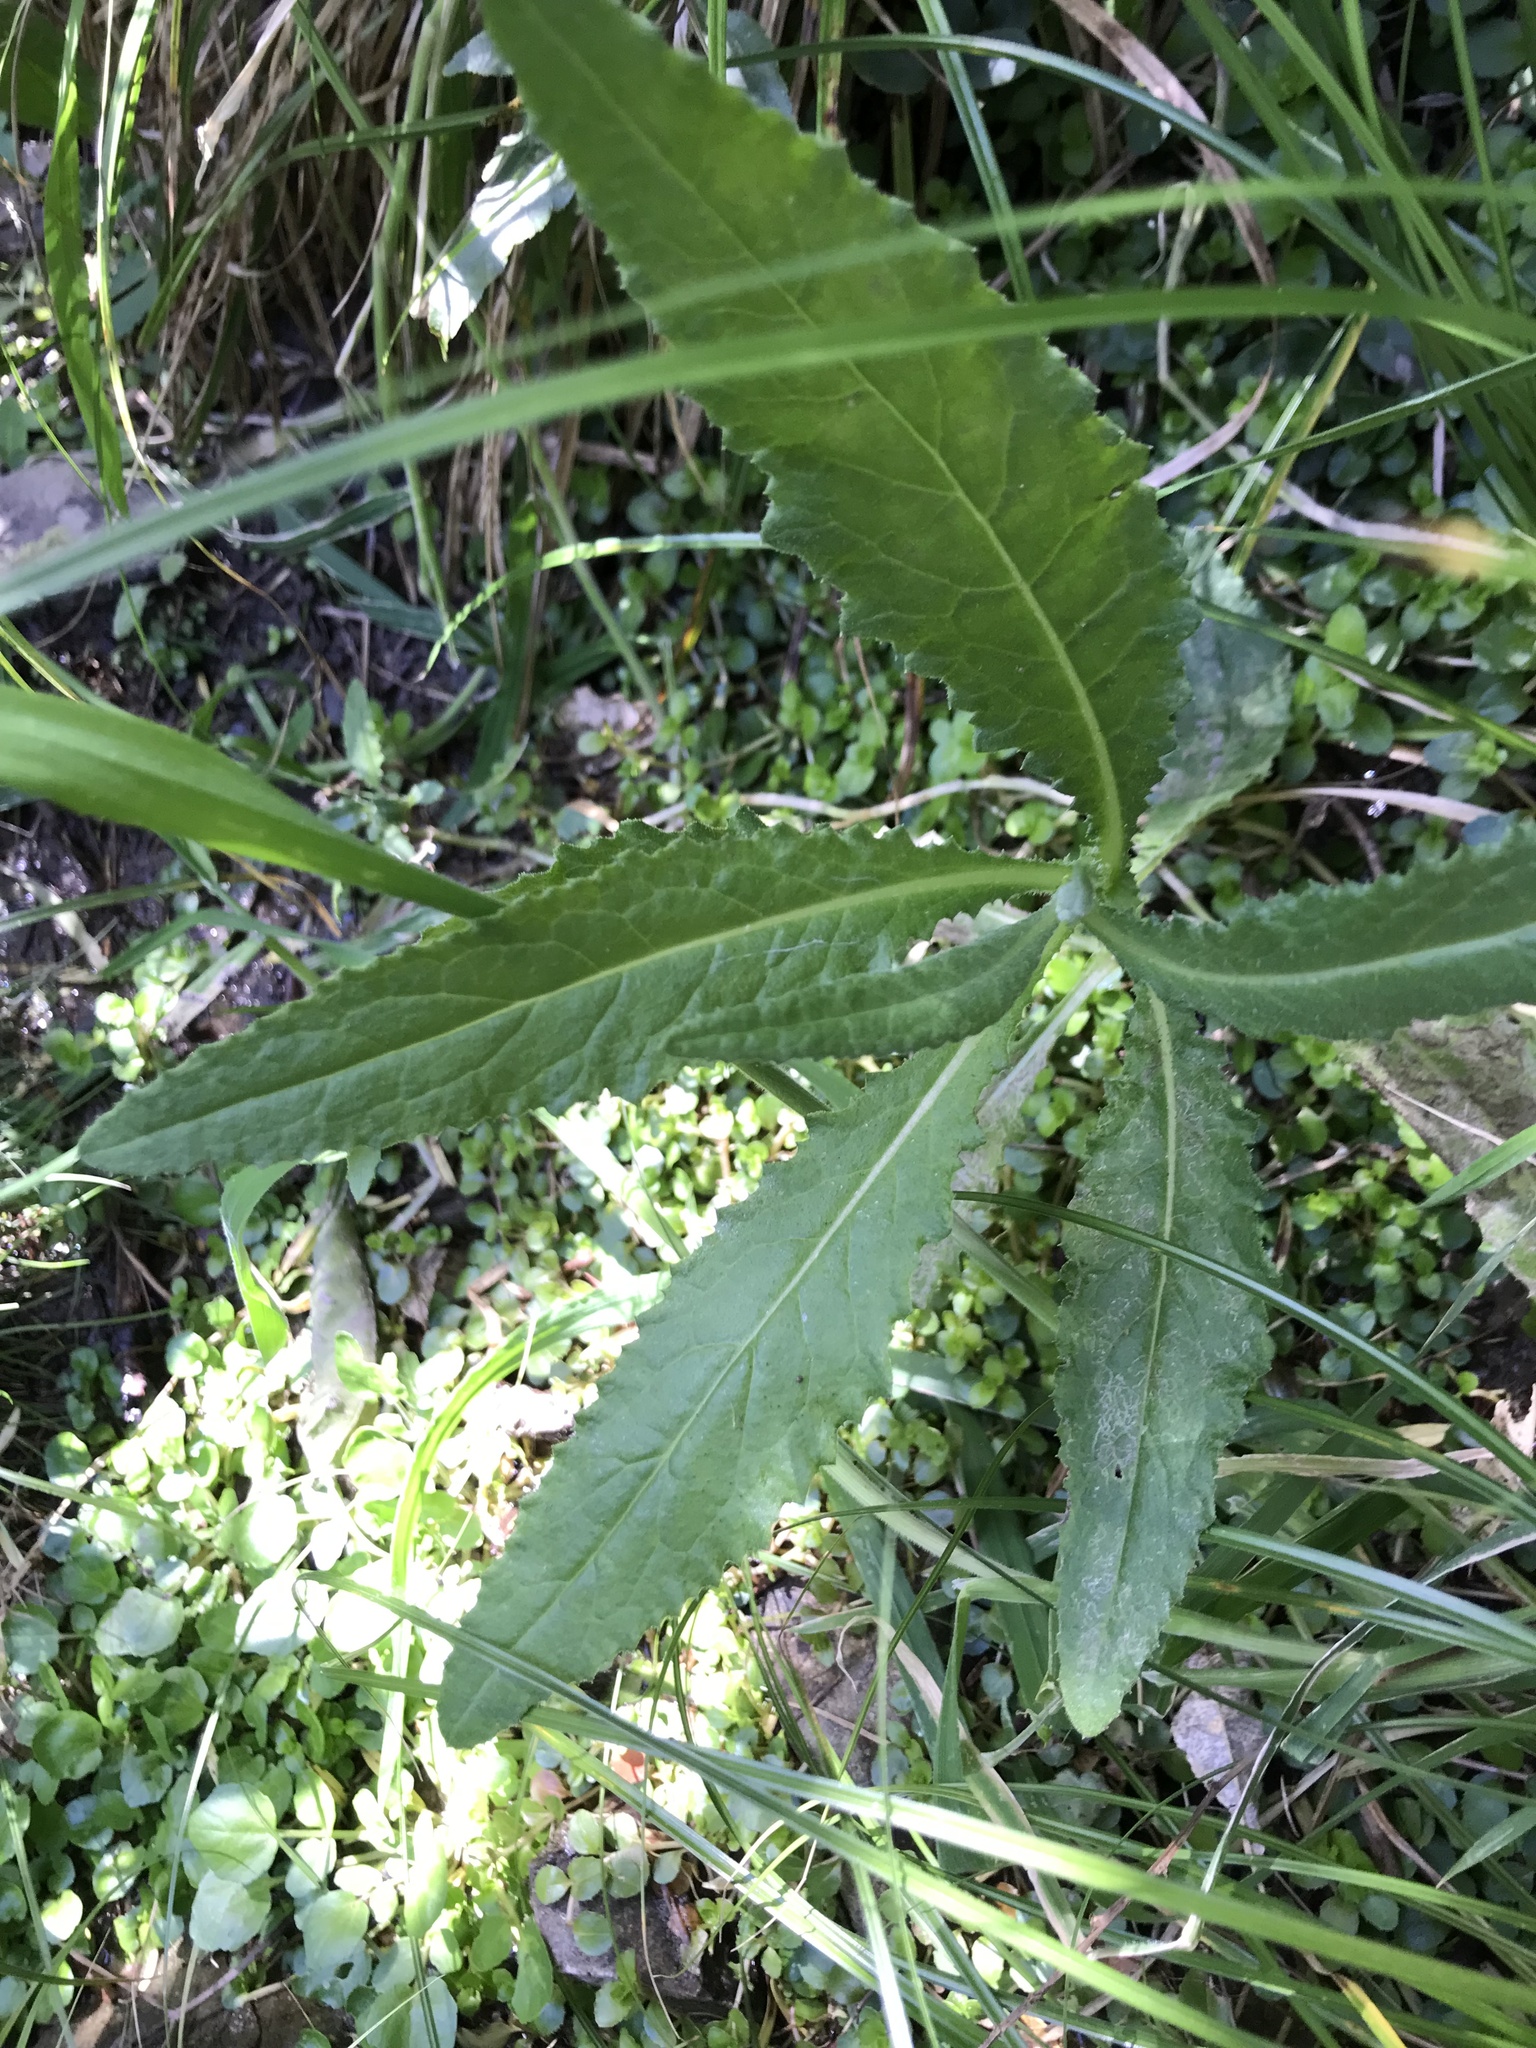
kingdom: Plantae
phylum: Tracheophyta
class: Magnoliopsida
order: Asterales
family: Asteraceae
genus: Senecio
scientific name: Senecio minimus
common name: Toothed fireweed
